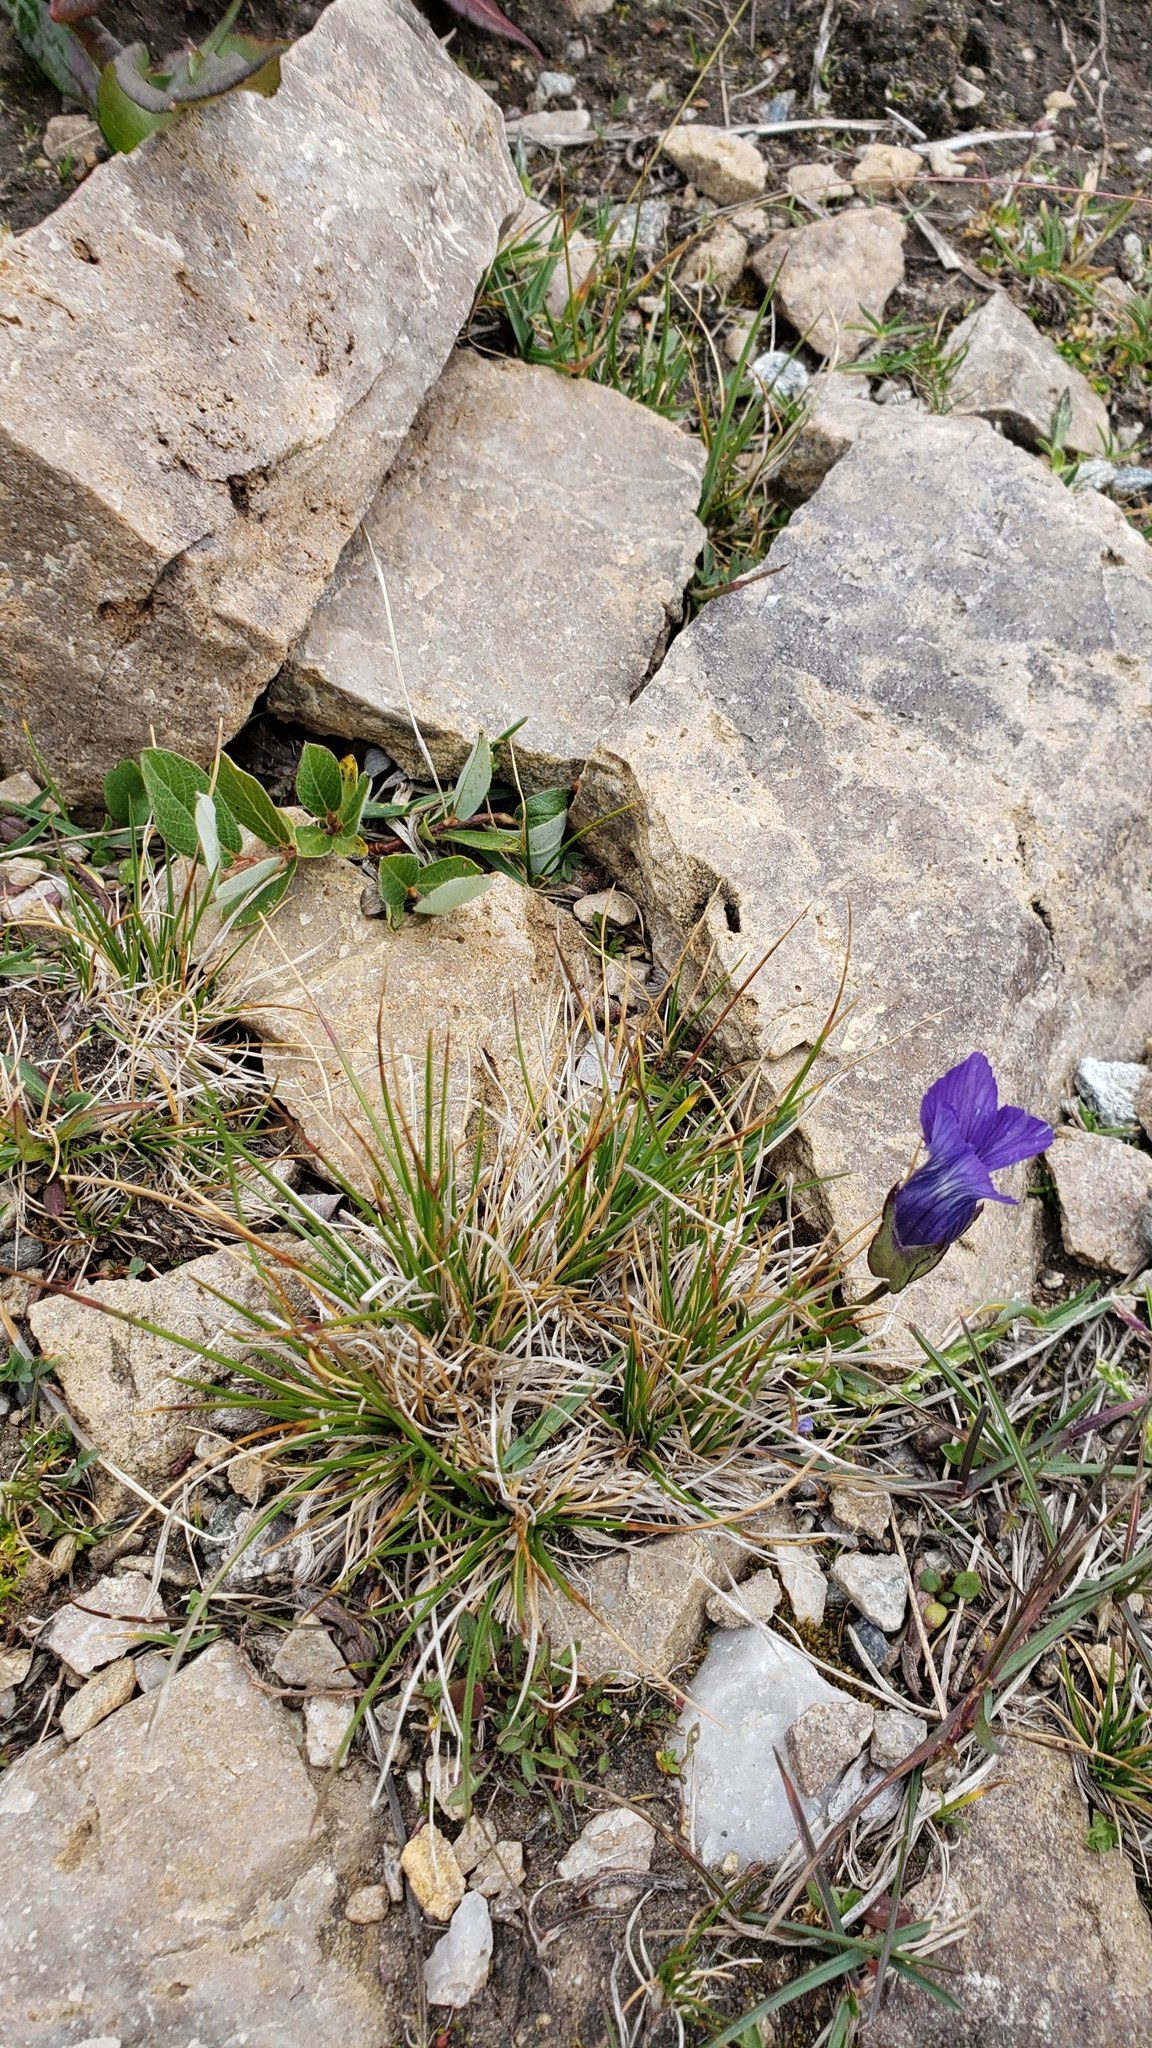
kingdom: Plantae
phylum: Tracheophyta
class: Magnoliopsida
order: Gentianales
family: Gentianaceae
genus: Gentianopsis
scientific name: Gentianopsis thermalis
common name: Rocky mountain fringed-gentian
